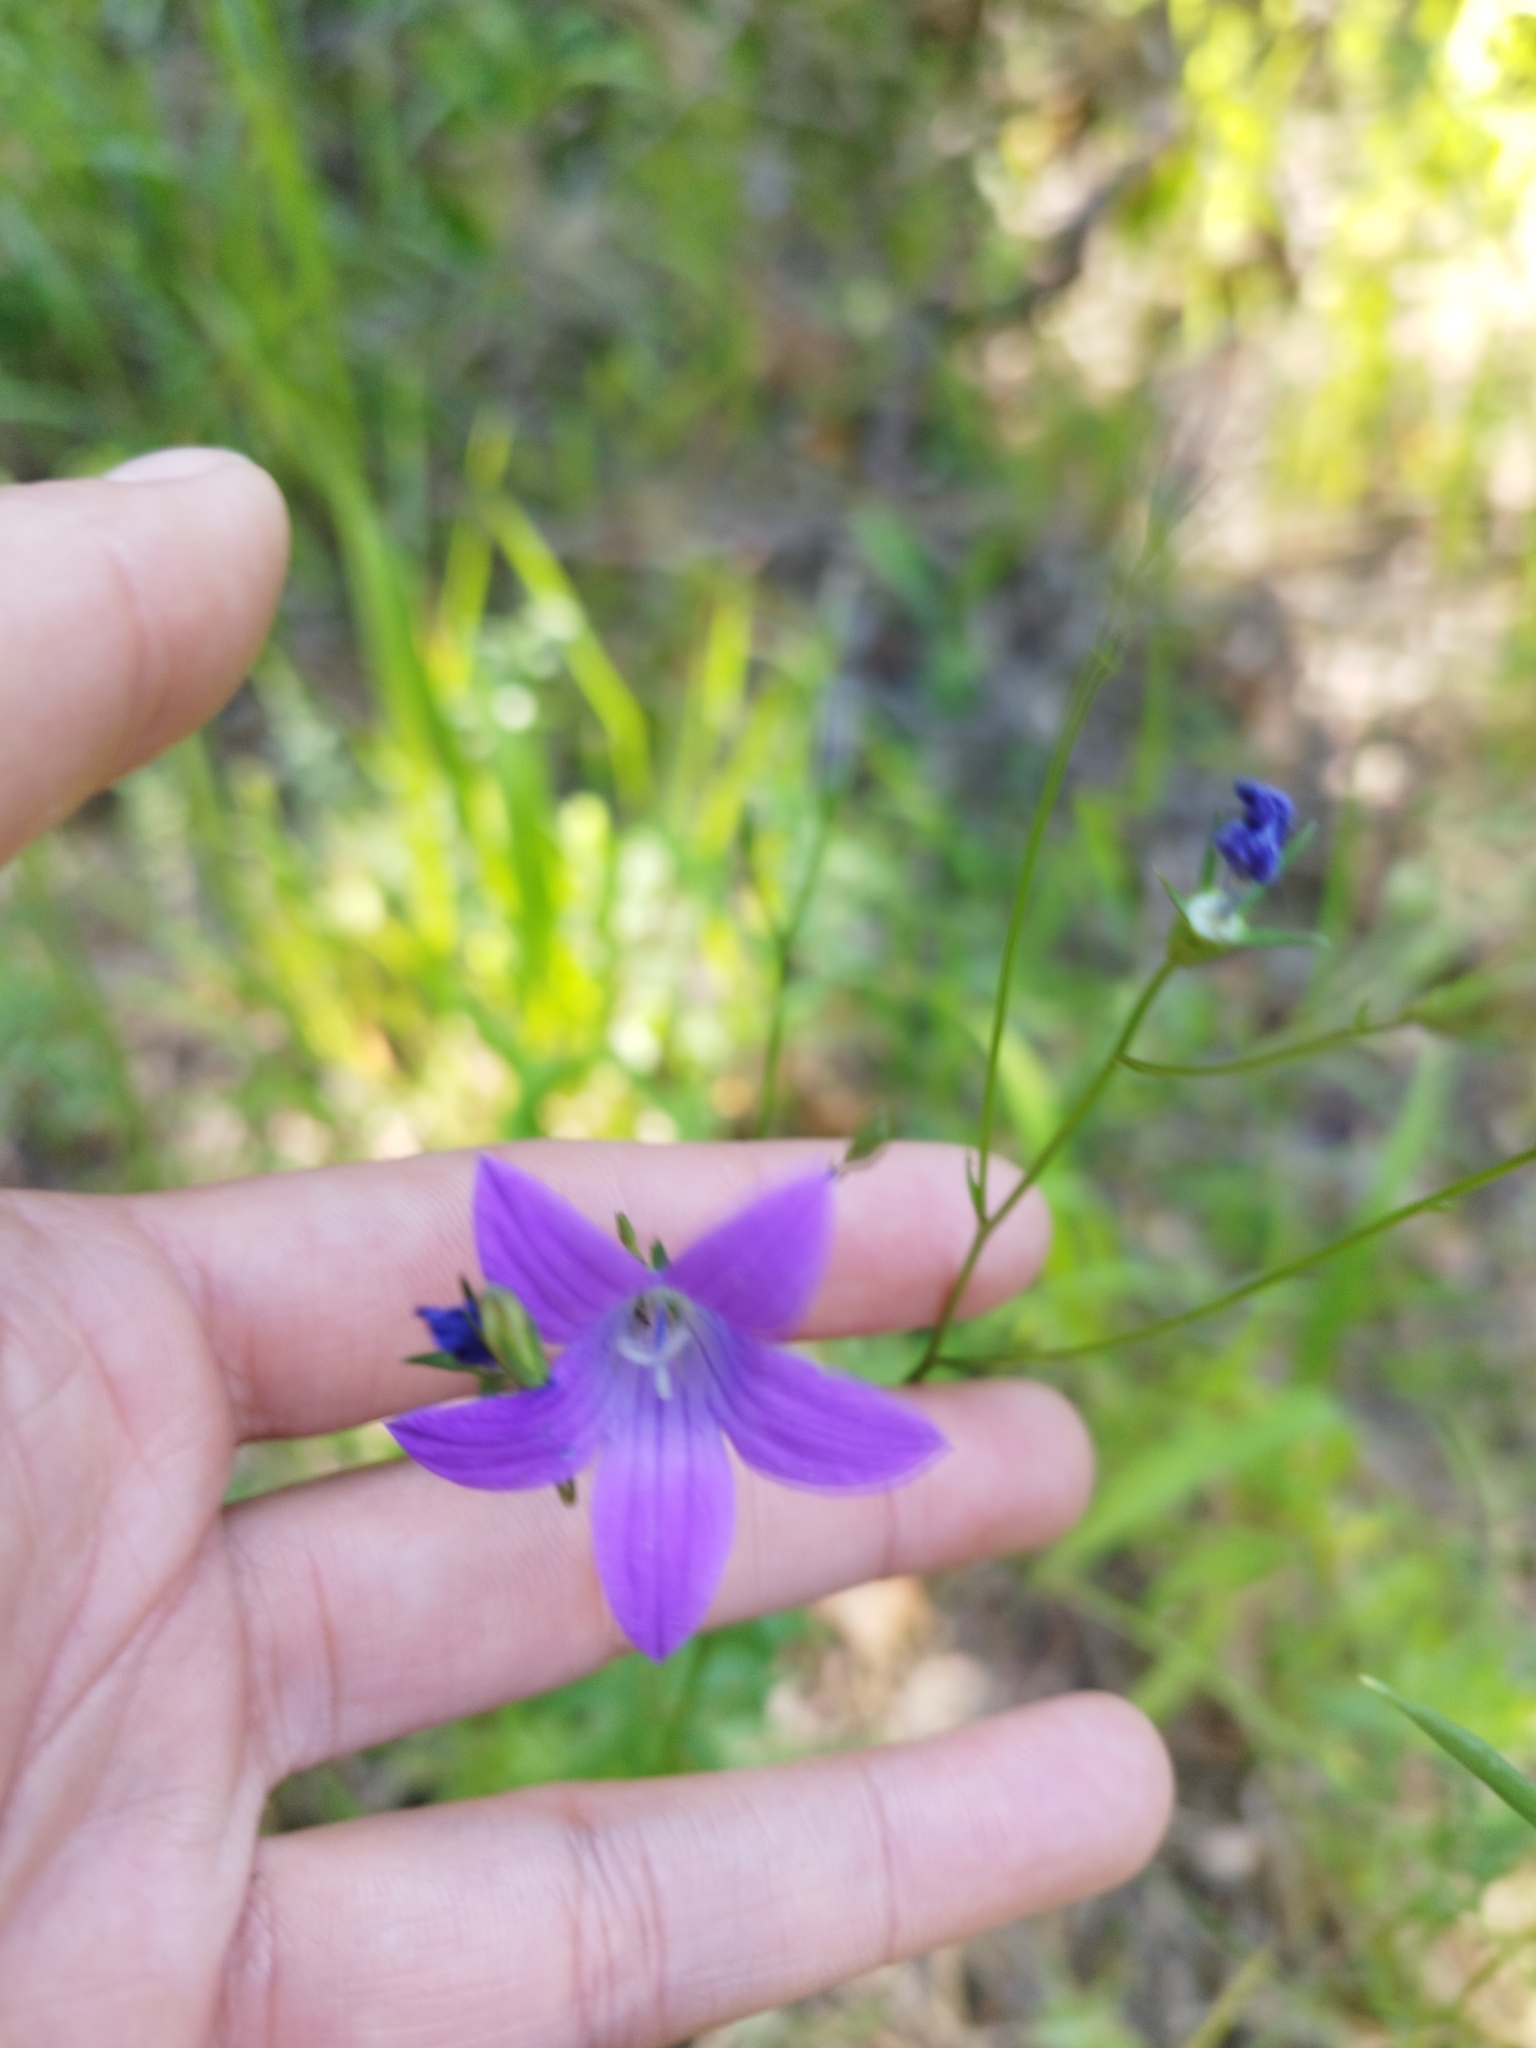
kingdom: Plantae
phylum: Tracheophyta
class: Magnoliopsida
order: Asterales
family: Campanulaceae
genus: Campanula
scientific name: Campanula patula
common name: Spreading bellflower
